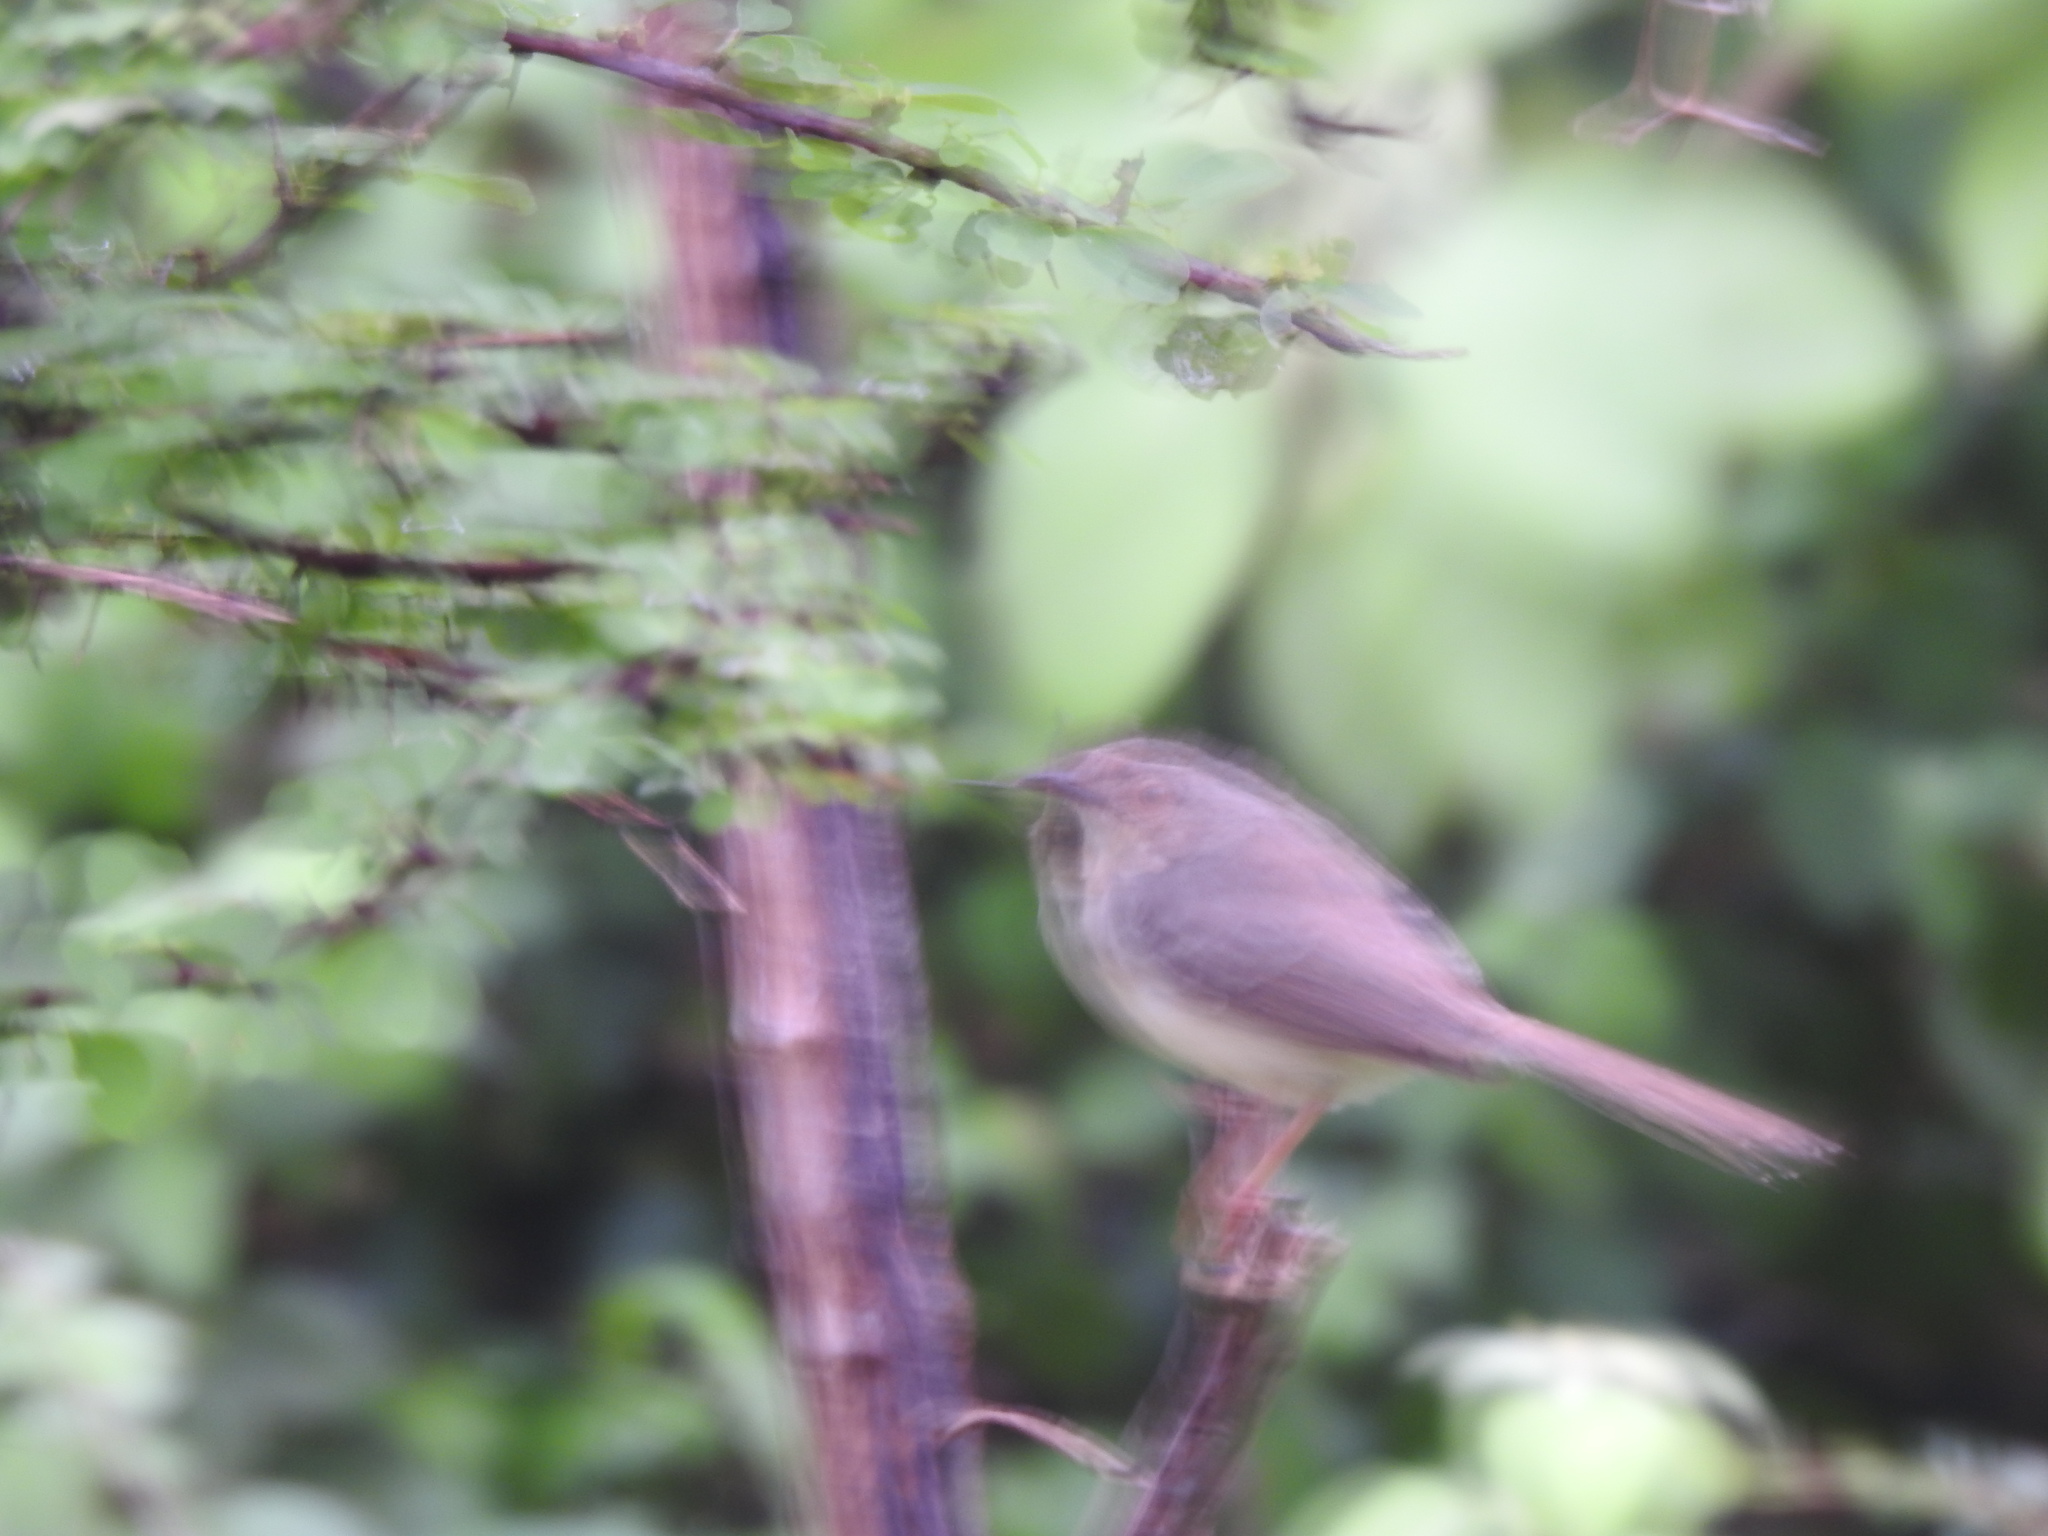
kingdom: Animalia
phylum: Chordata
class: Aves
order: Passeriformes
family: Cisticolidae
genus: Prinia
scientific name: Prinia sylvatica
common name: Jungle prinia
